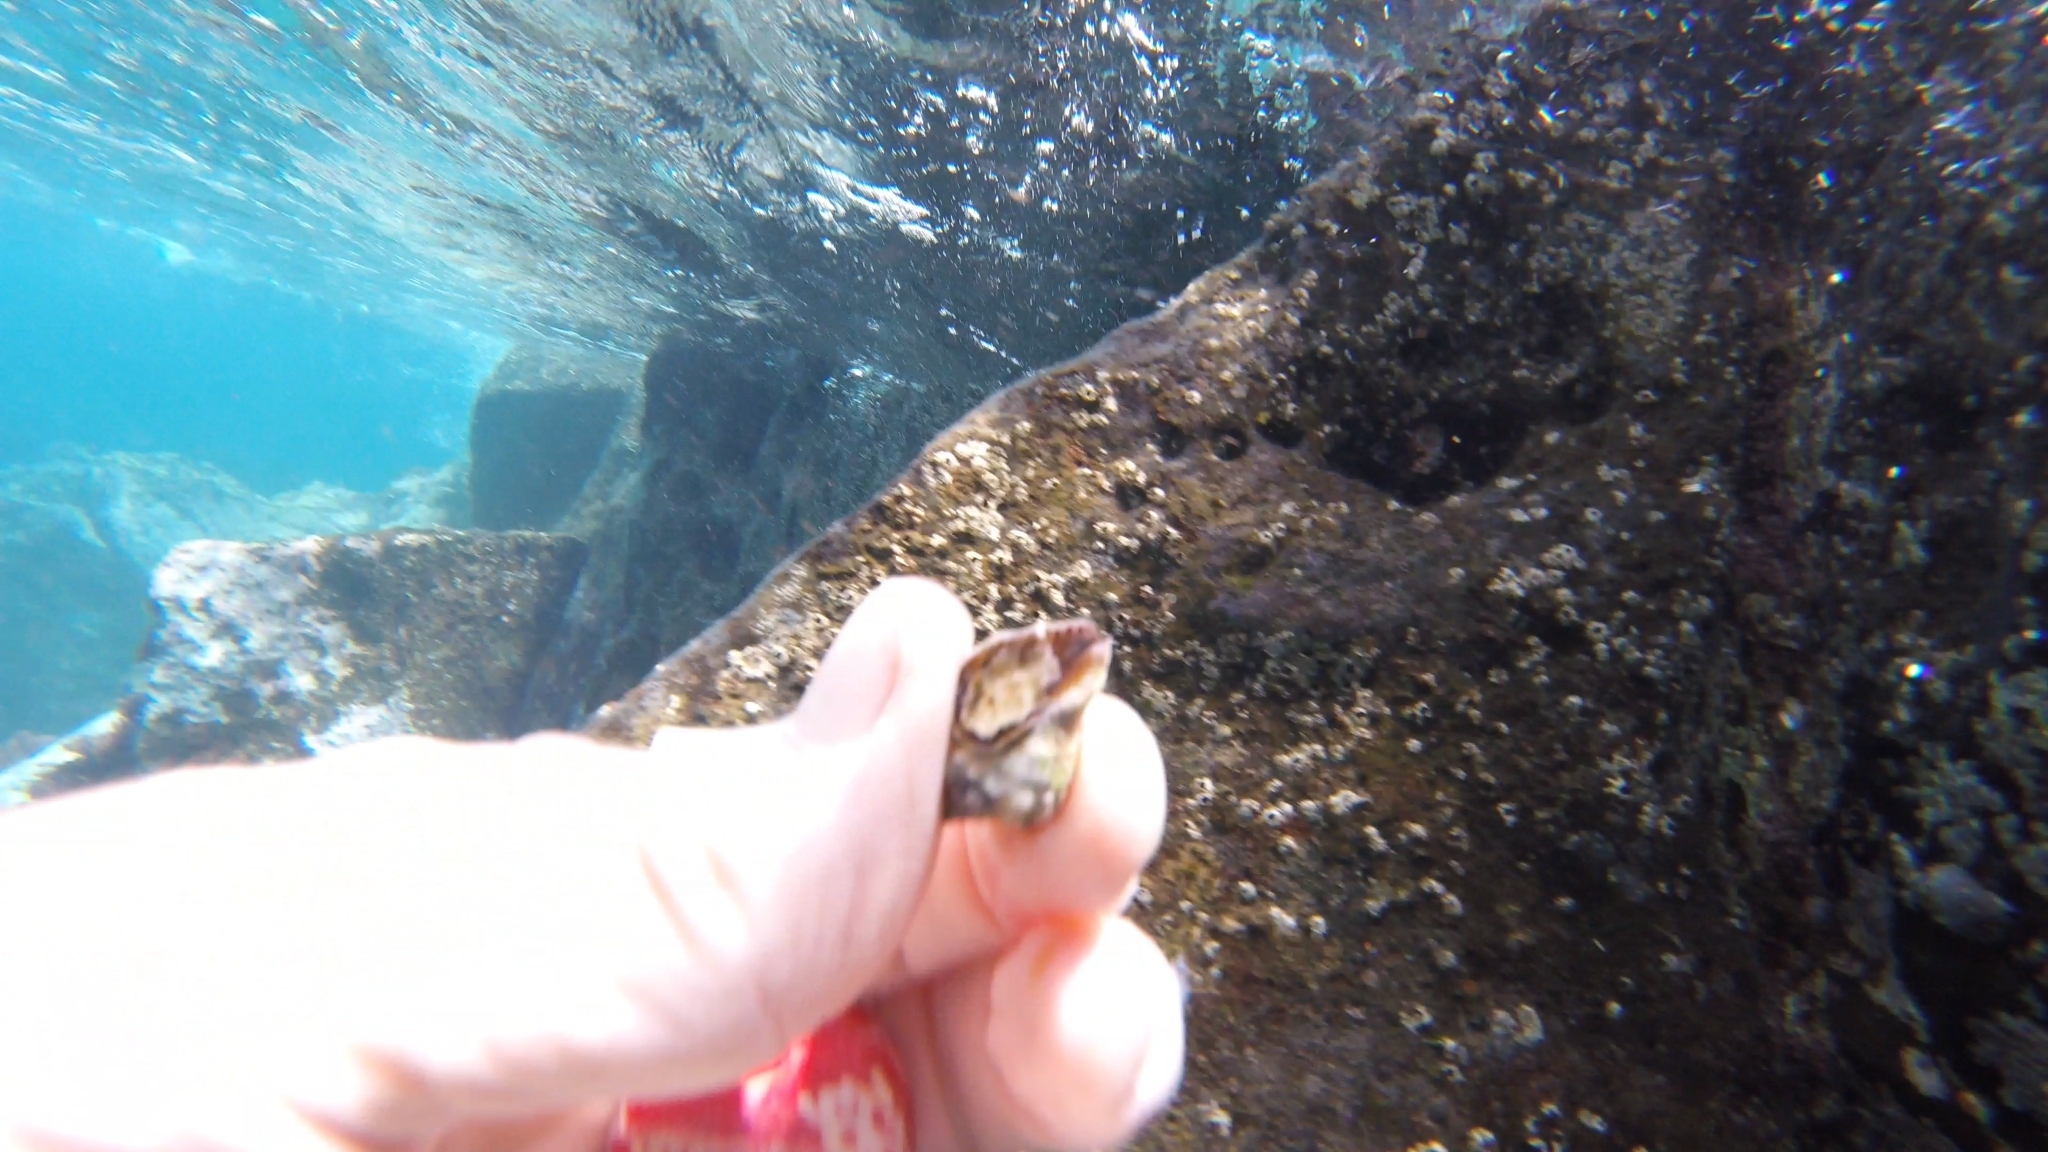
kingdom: Animalia
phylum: Mollusca
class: Gastropoda
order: Neogastropoda
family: Muricidae
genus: Stramonita
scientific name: Stramonita haemastoma
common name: Florida dog winkle
